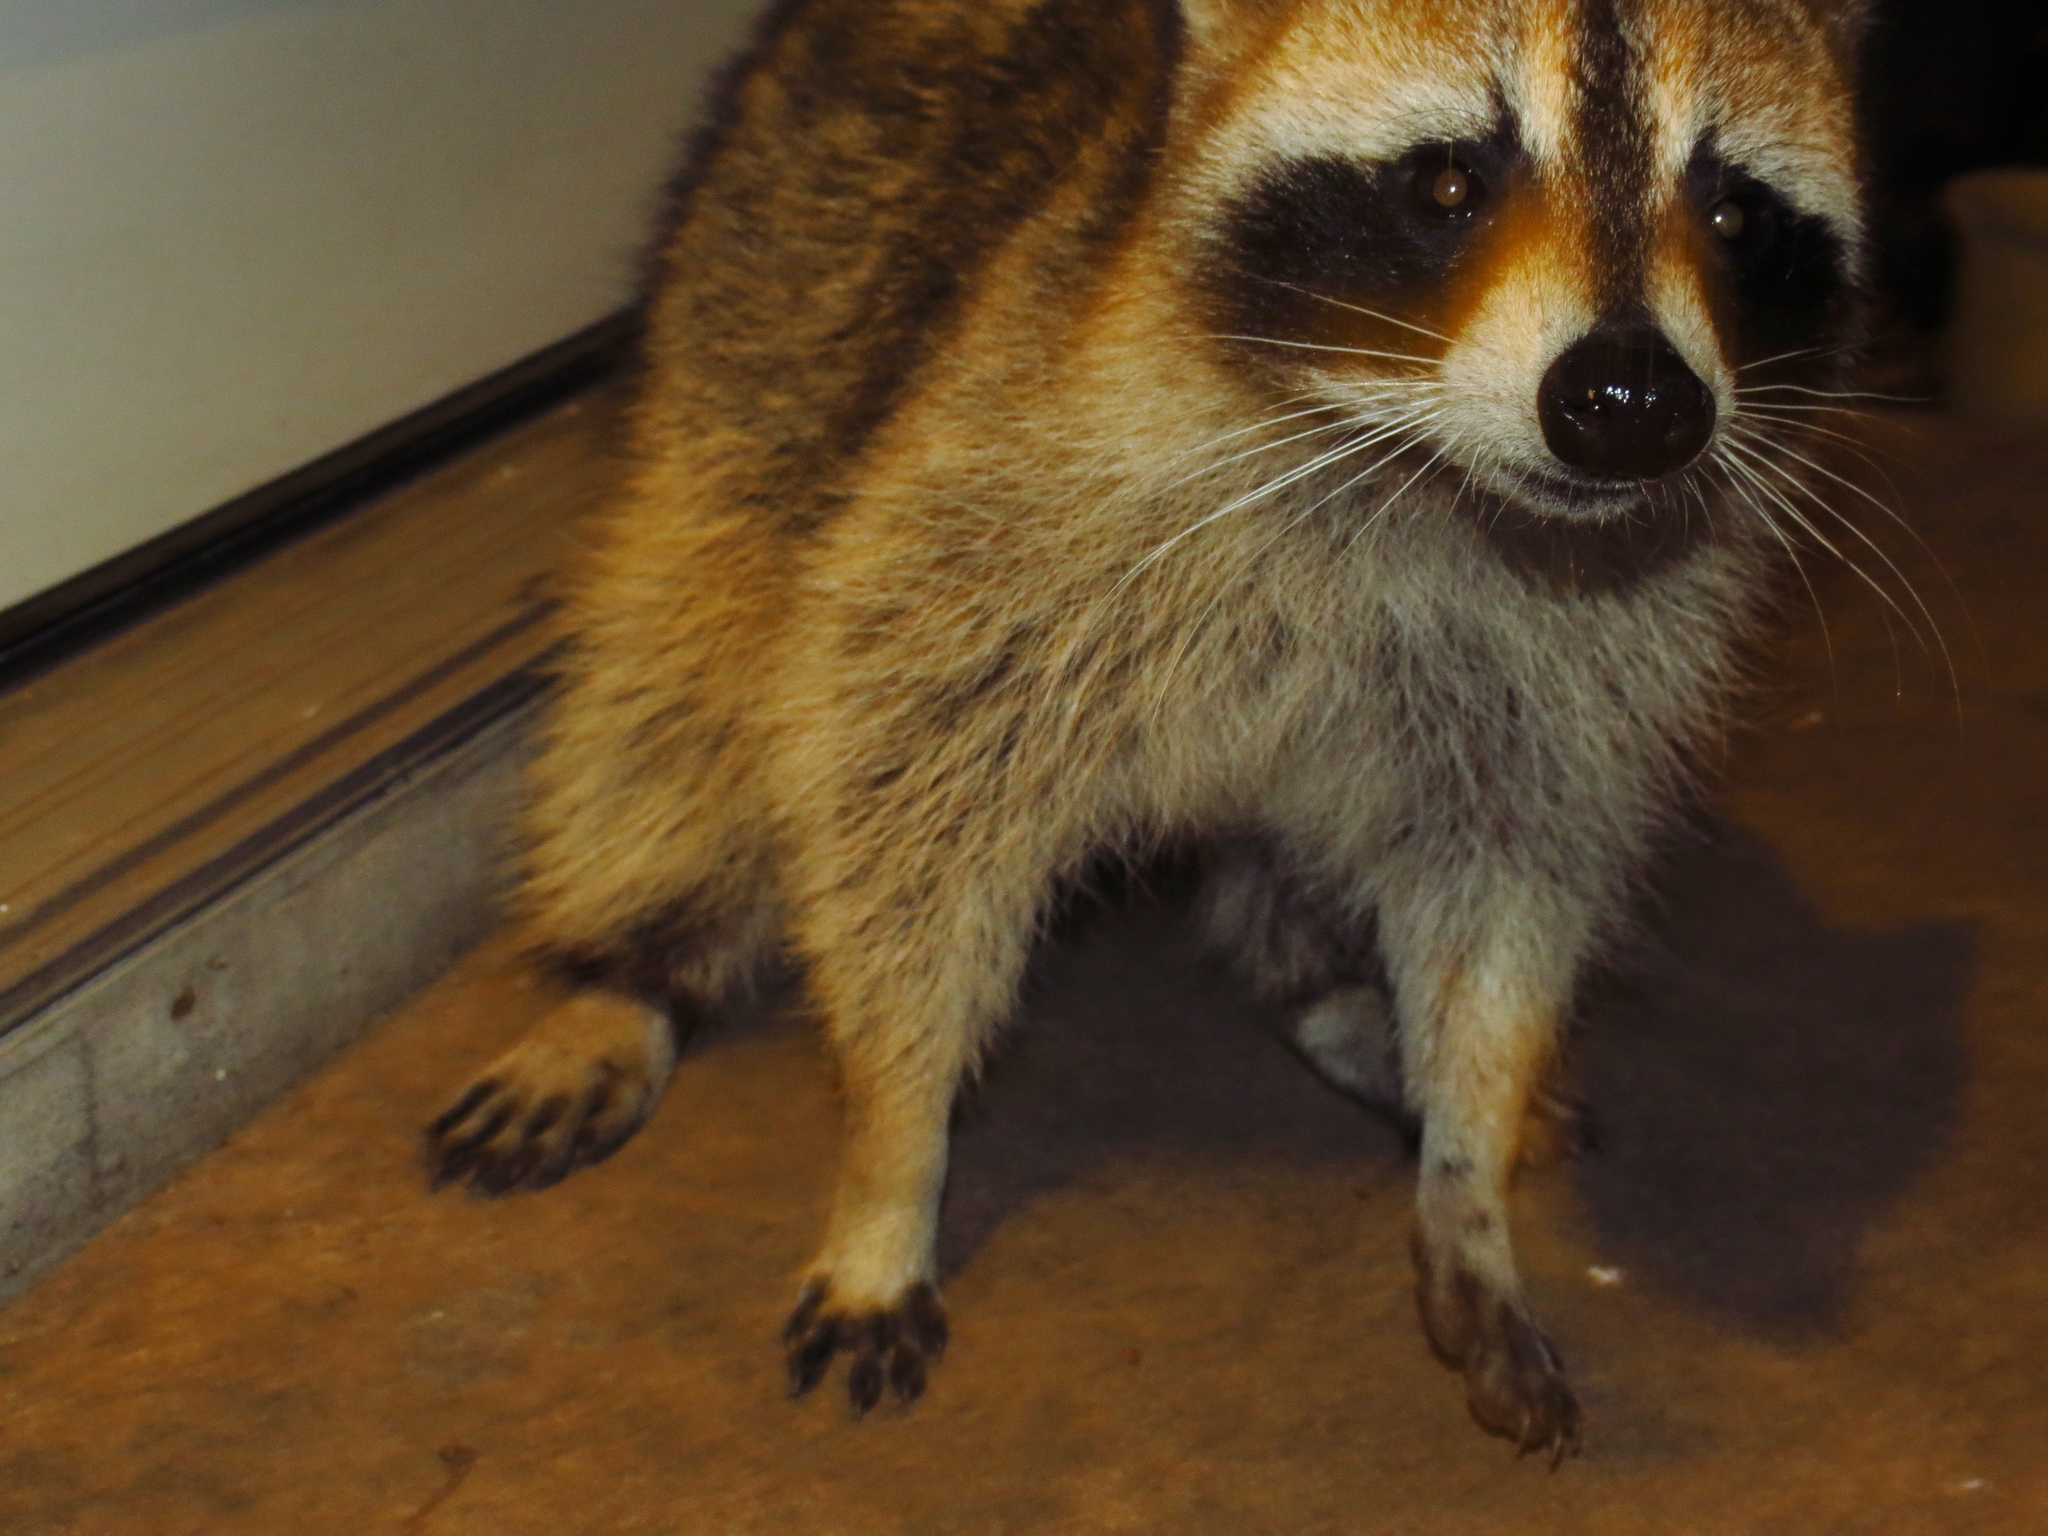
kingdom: Animalia
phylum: Chordata
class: Mammalia
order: Carnivora
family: Procyonidae
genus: Procyon
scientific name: Procyon lotor
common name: Raccoon
